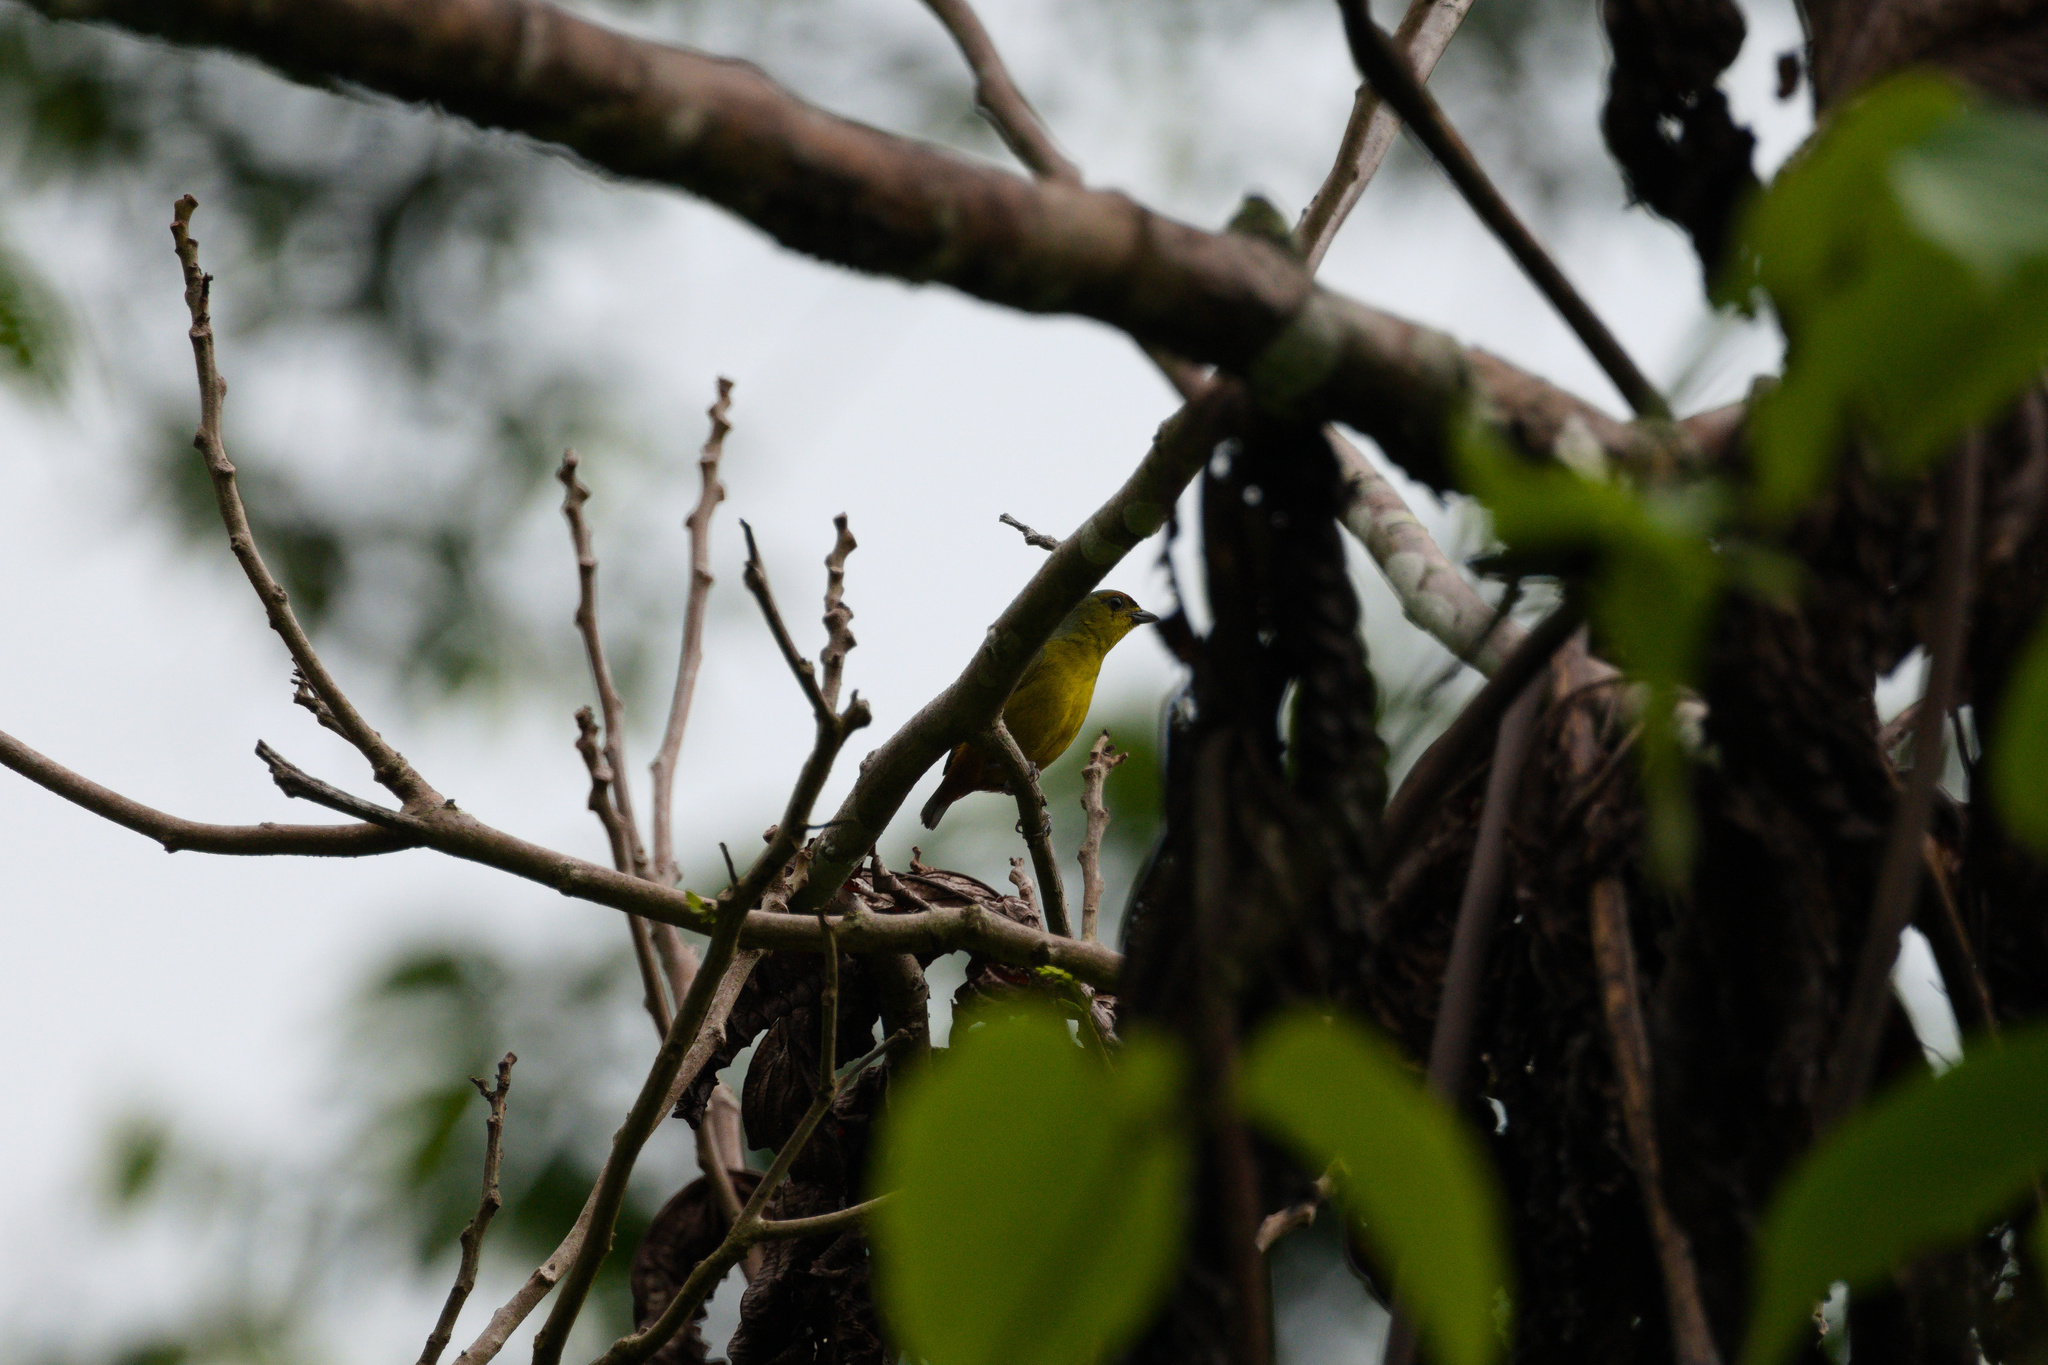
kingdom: Animalia
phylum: Chordata
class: Aves
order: Passeriformes
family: Fringillidae
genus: Euphonia
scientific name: Euphonia gouldi
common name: Olive-backed euphonia
